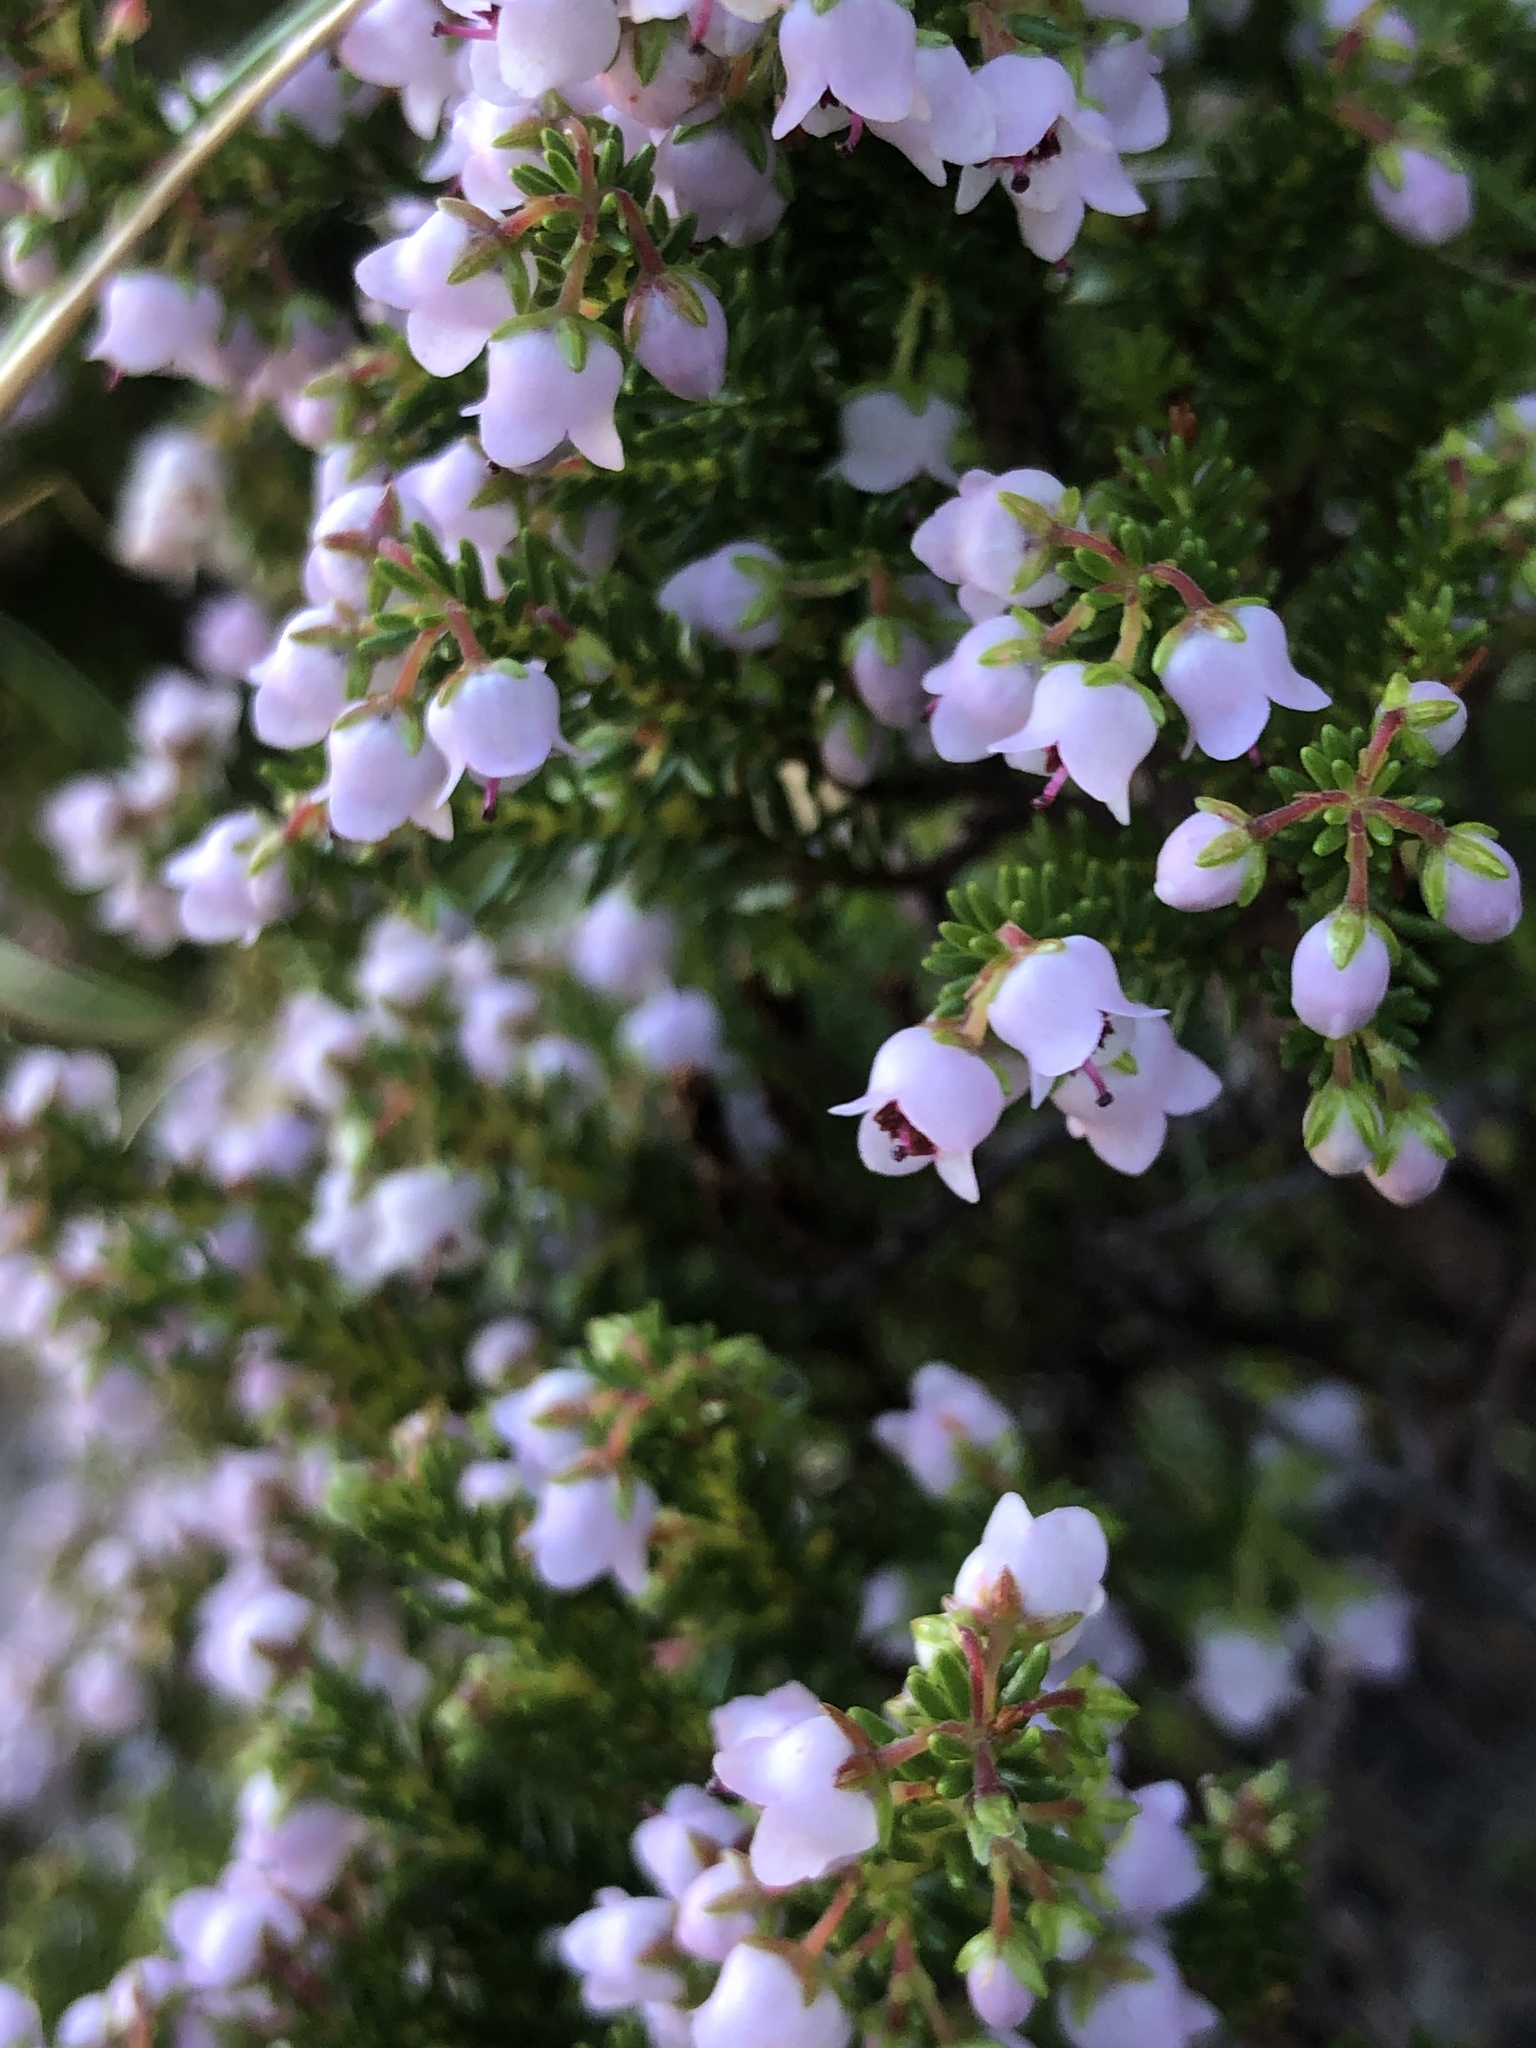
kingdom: Plantae
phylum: Tracheophyta
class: Magnoliopsida
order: Ericales
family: Ericaceae
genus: Erica
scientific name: Erica curvirostris
